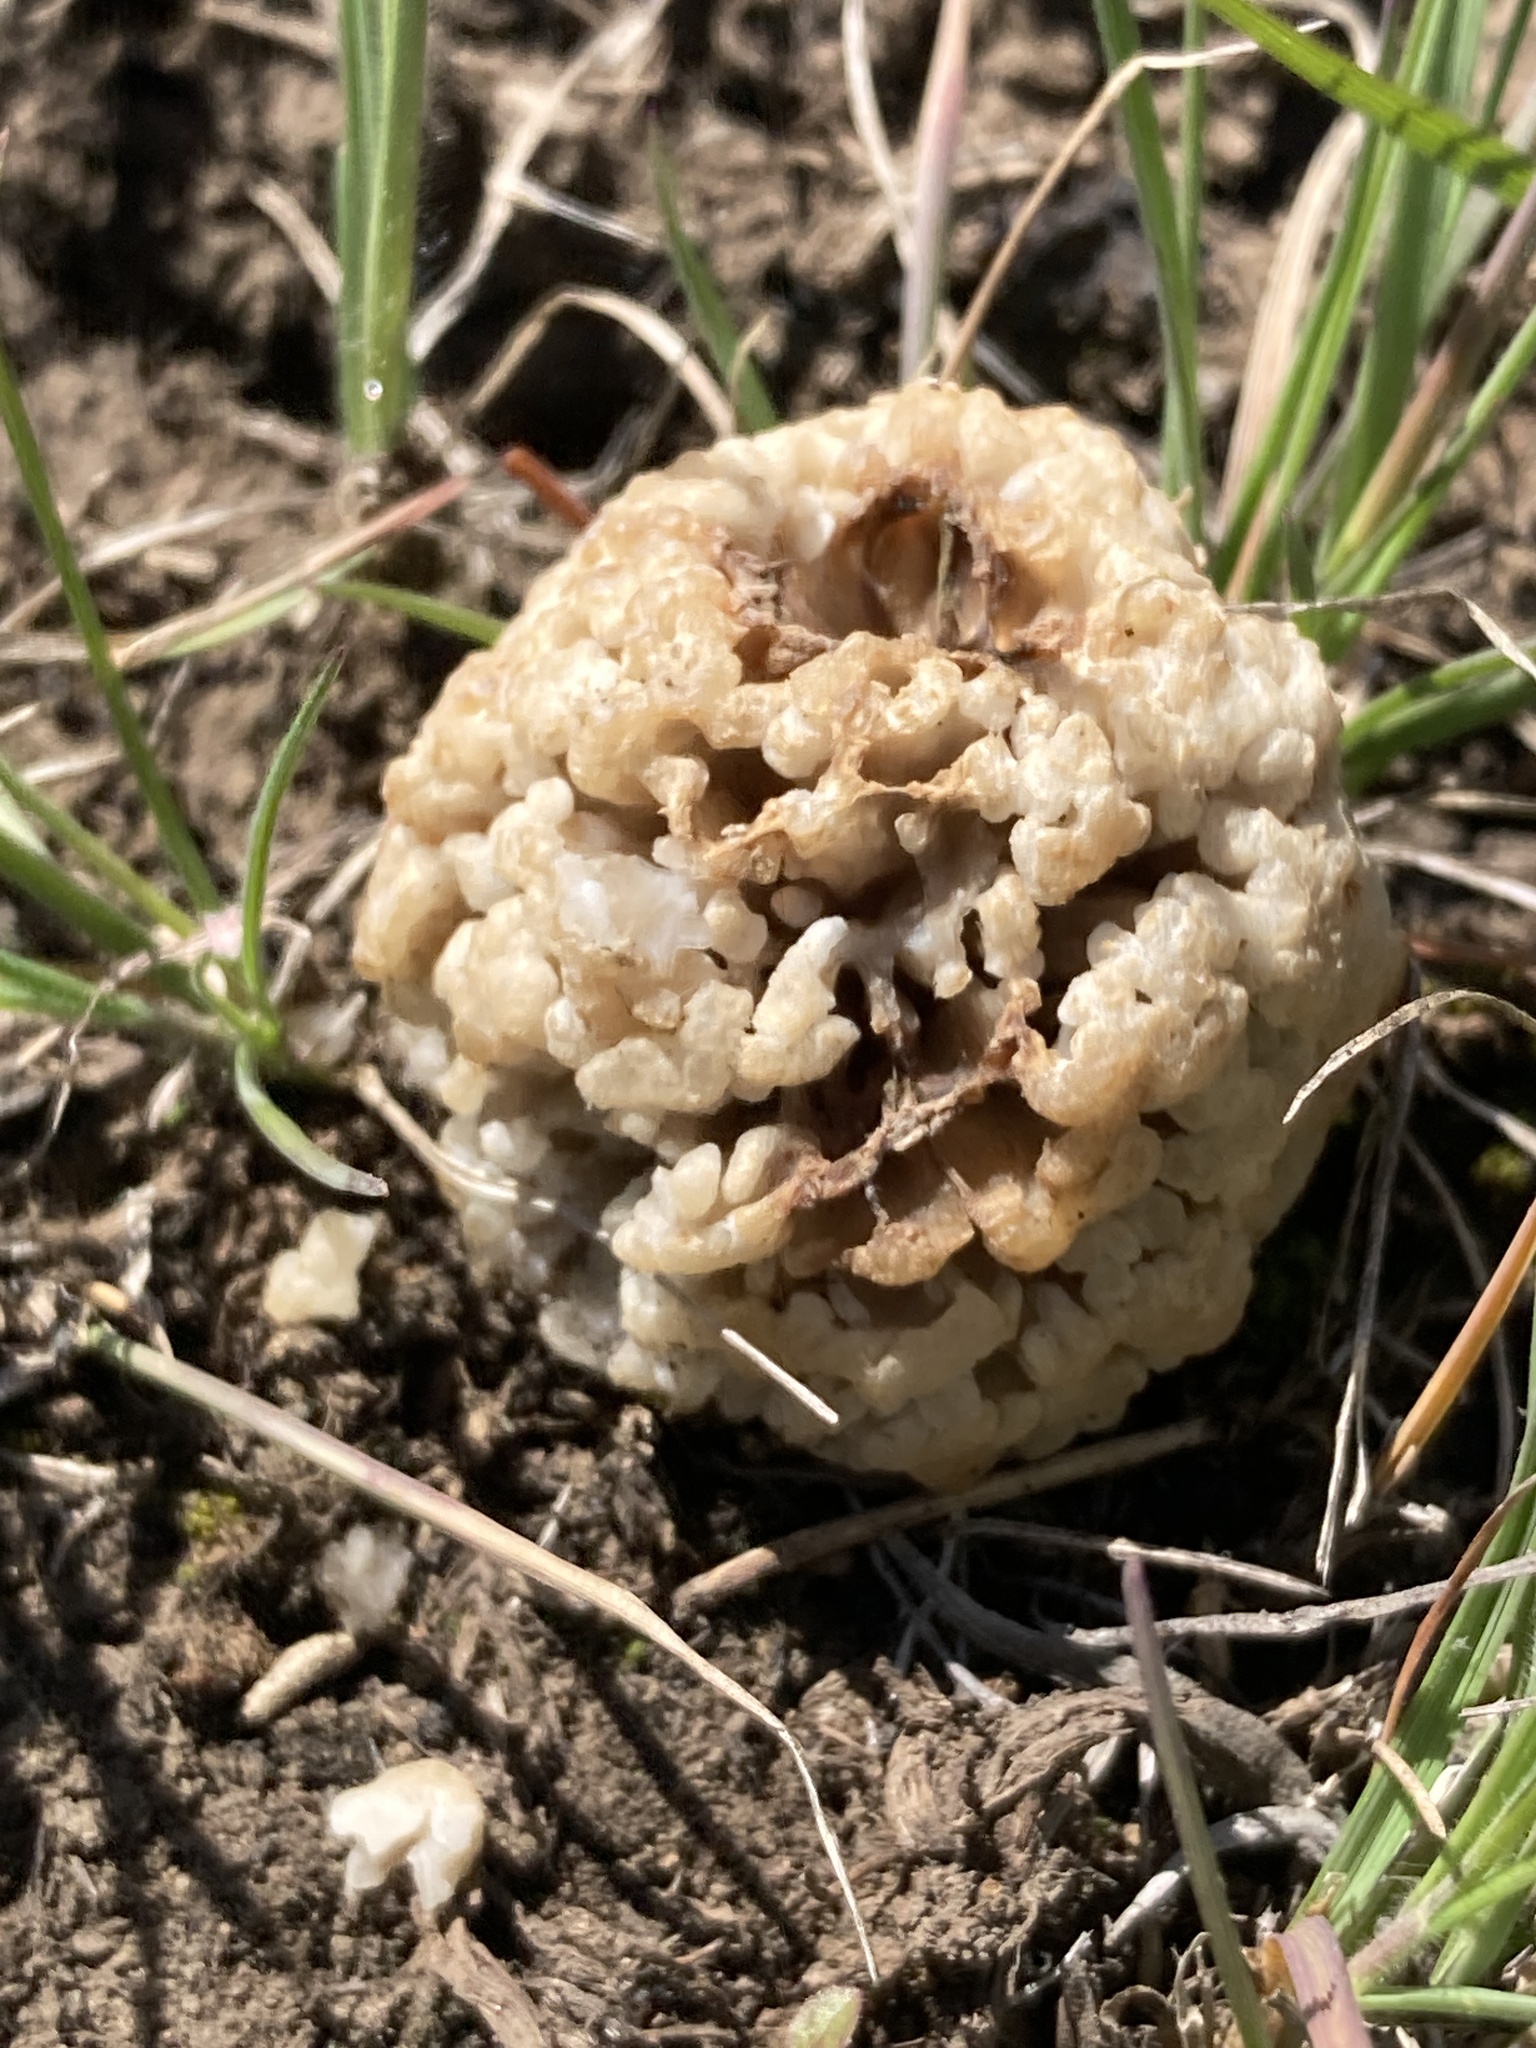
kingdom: Fungi
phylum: Ascomycota
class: Pezizomycetes
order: Pezizales
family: Morchellaceae
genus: Morchella
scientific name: Morchella steppicola
